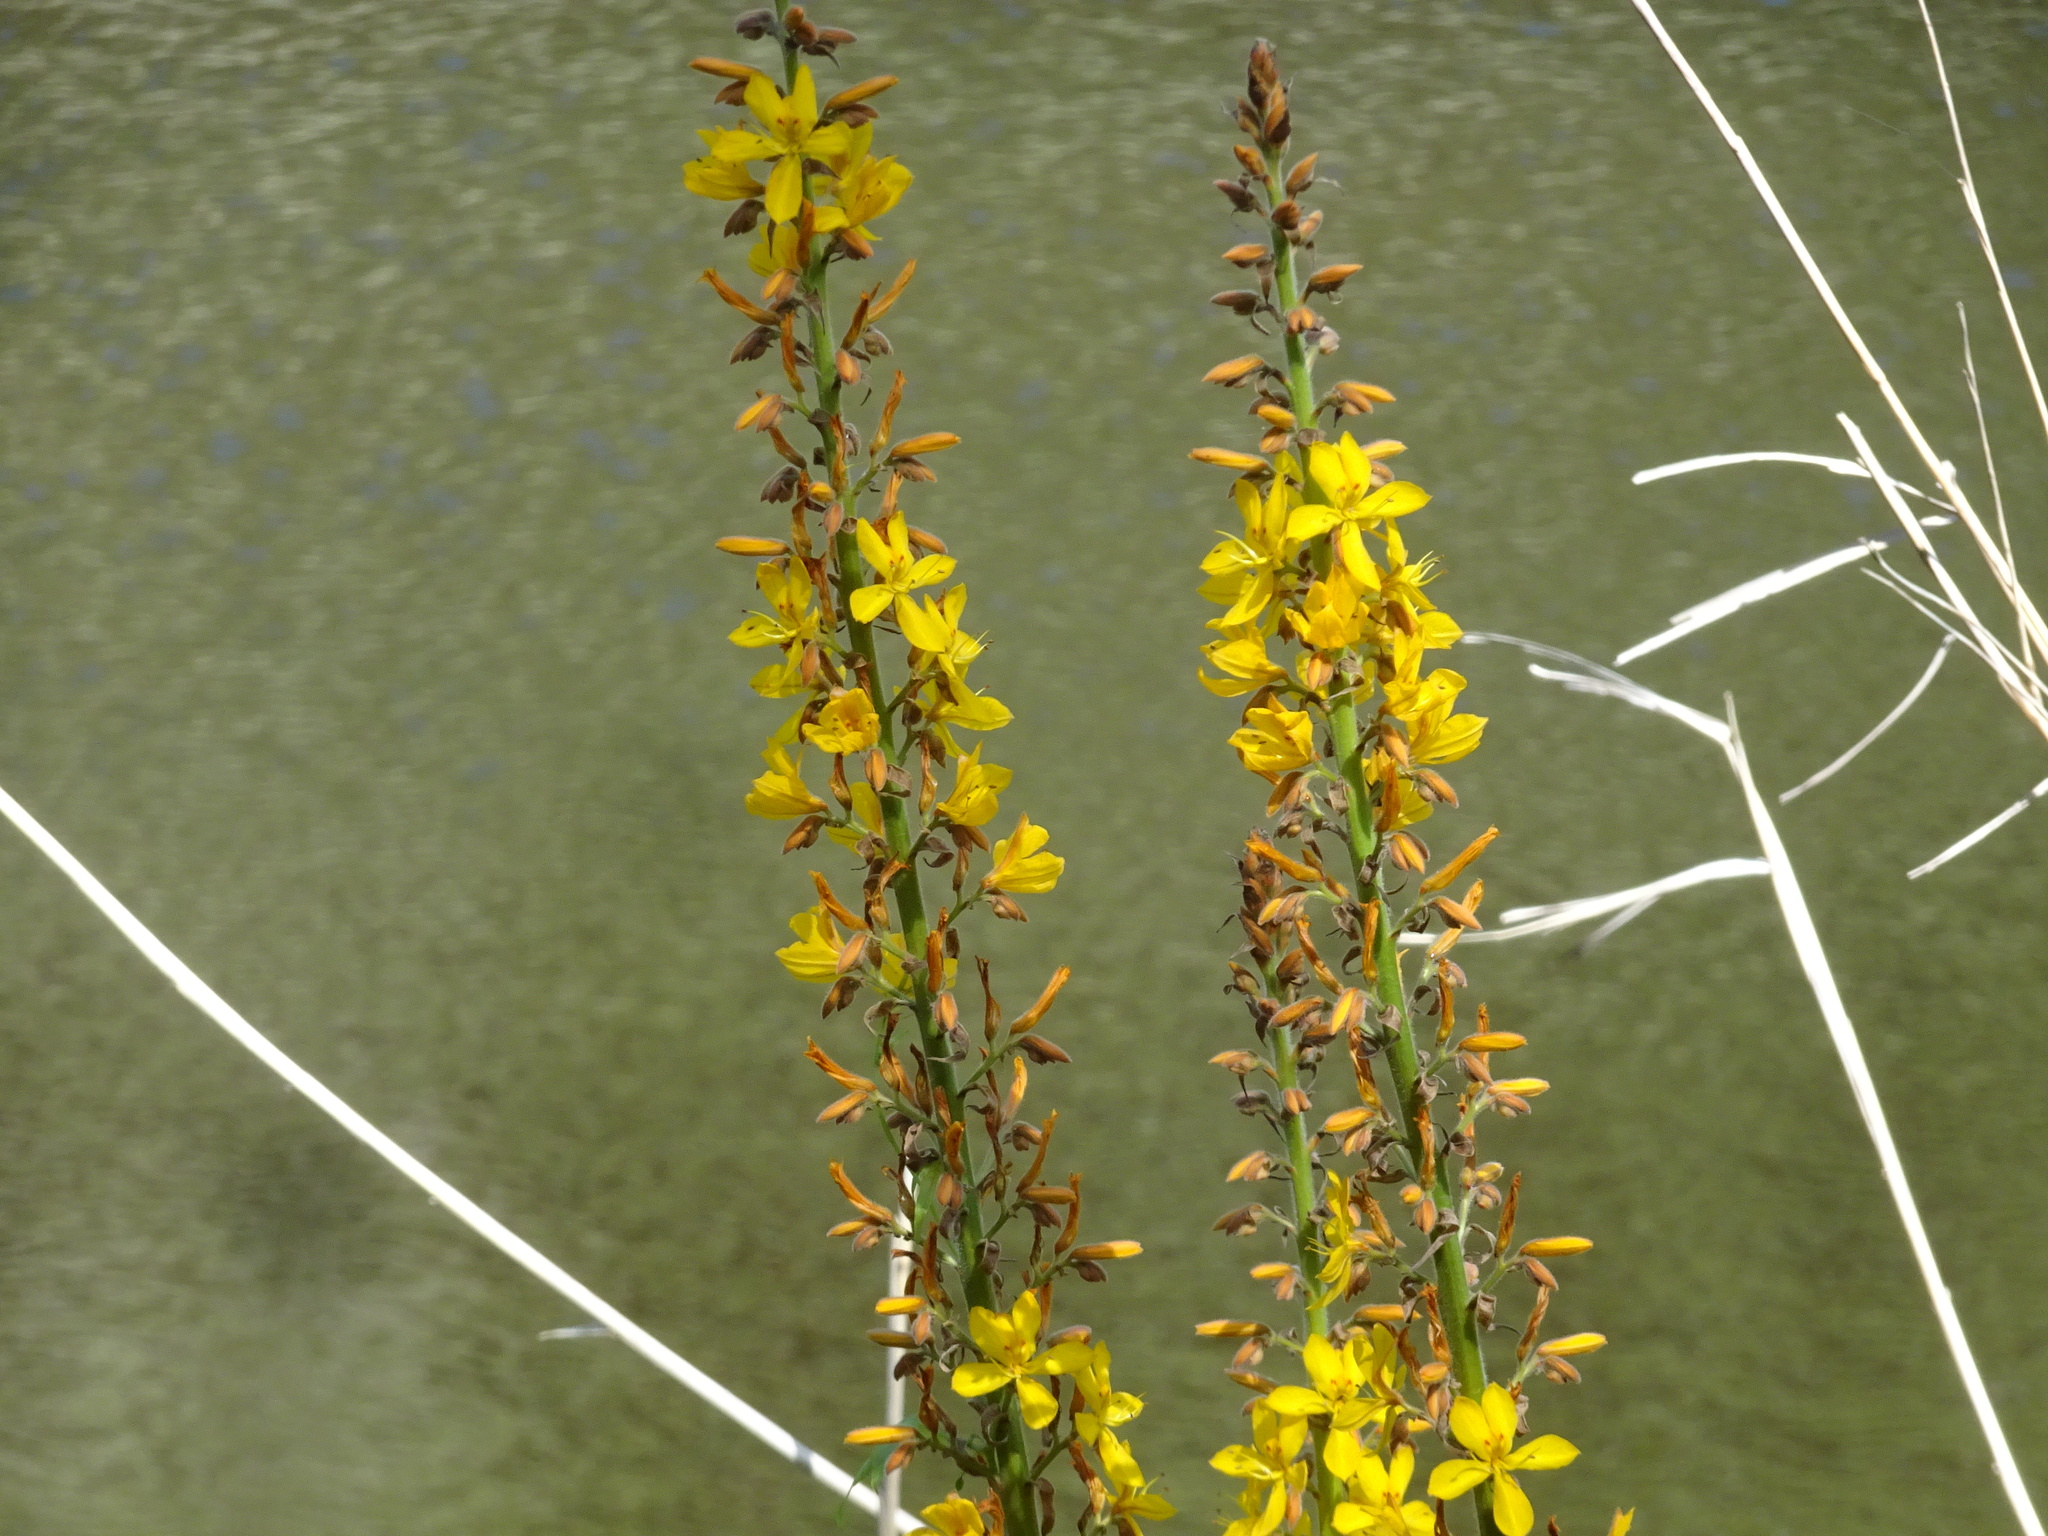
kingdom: Plantae
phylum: Tracheophyta
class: Liliopsida
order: Commelinales
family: Haemodoraceae
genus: Wachendorfia
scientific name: Wachendorfia thyrsiflora
